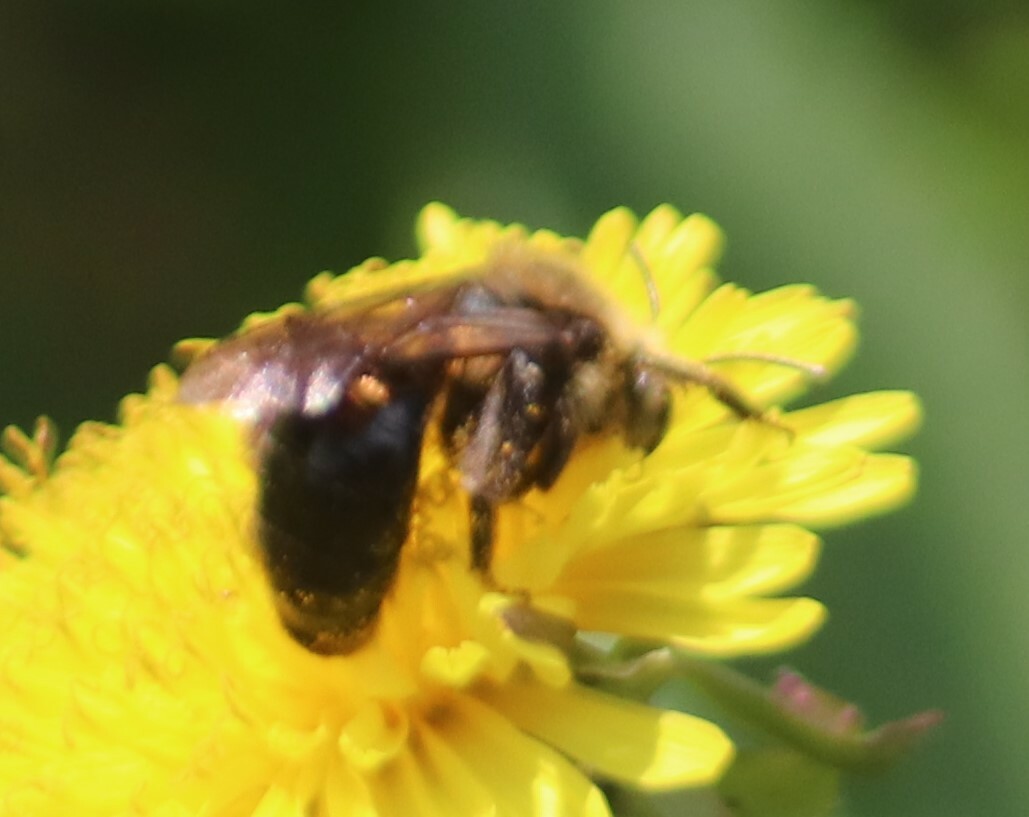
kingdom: Animalia
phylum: Arthropoda
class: Insecta
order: Hymenoptera
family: Andrenidae
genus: Andrena
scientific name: Andrena vicina
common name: Neighborly mining bee
